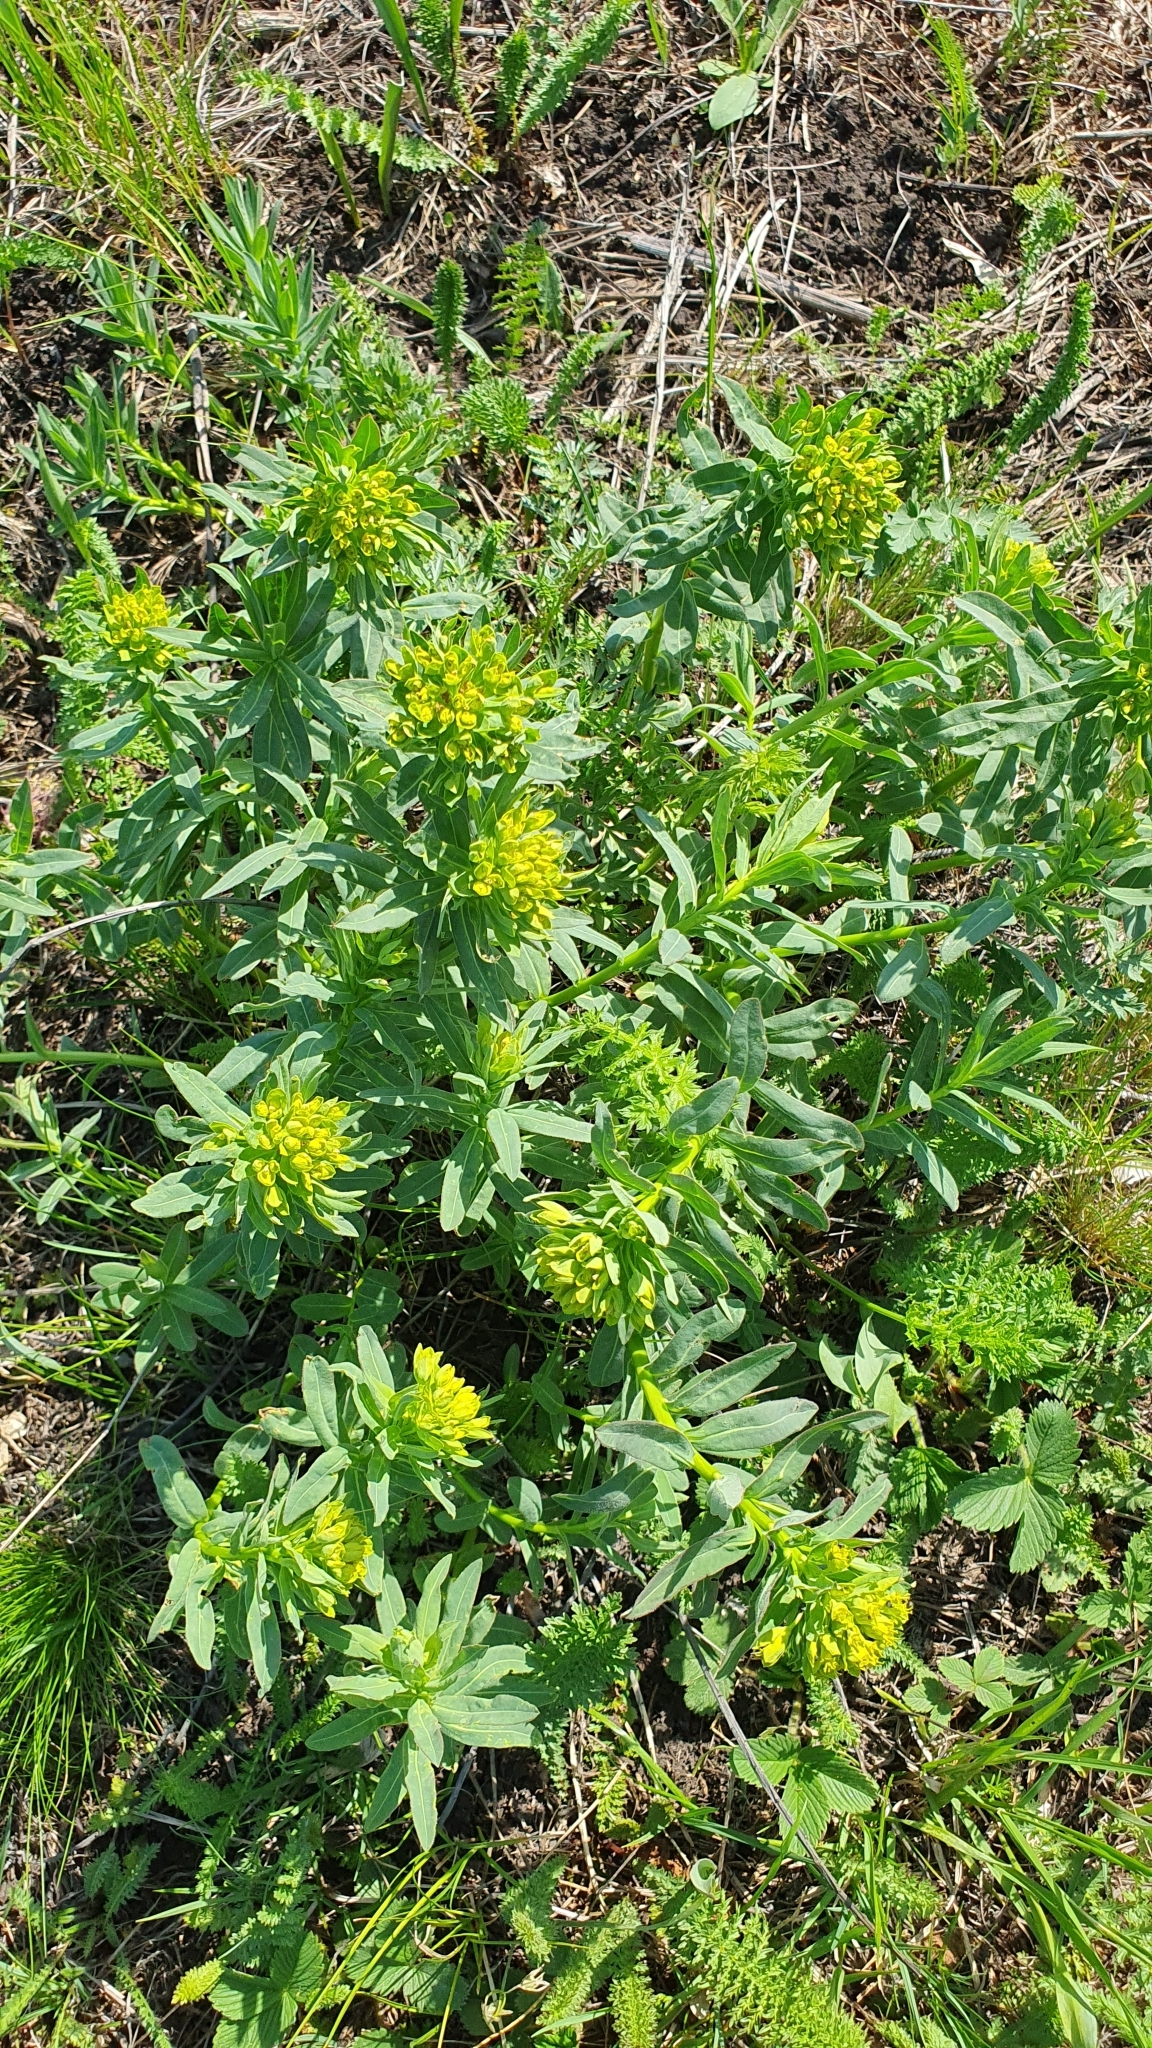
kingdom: Plantae
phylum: Tracheophyta
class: Magnoliopsida
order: Malpighiales
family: Euphorbiaceae
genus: Euphorbia
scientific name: Euphorbia palustris
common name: Marsh spurge
